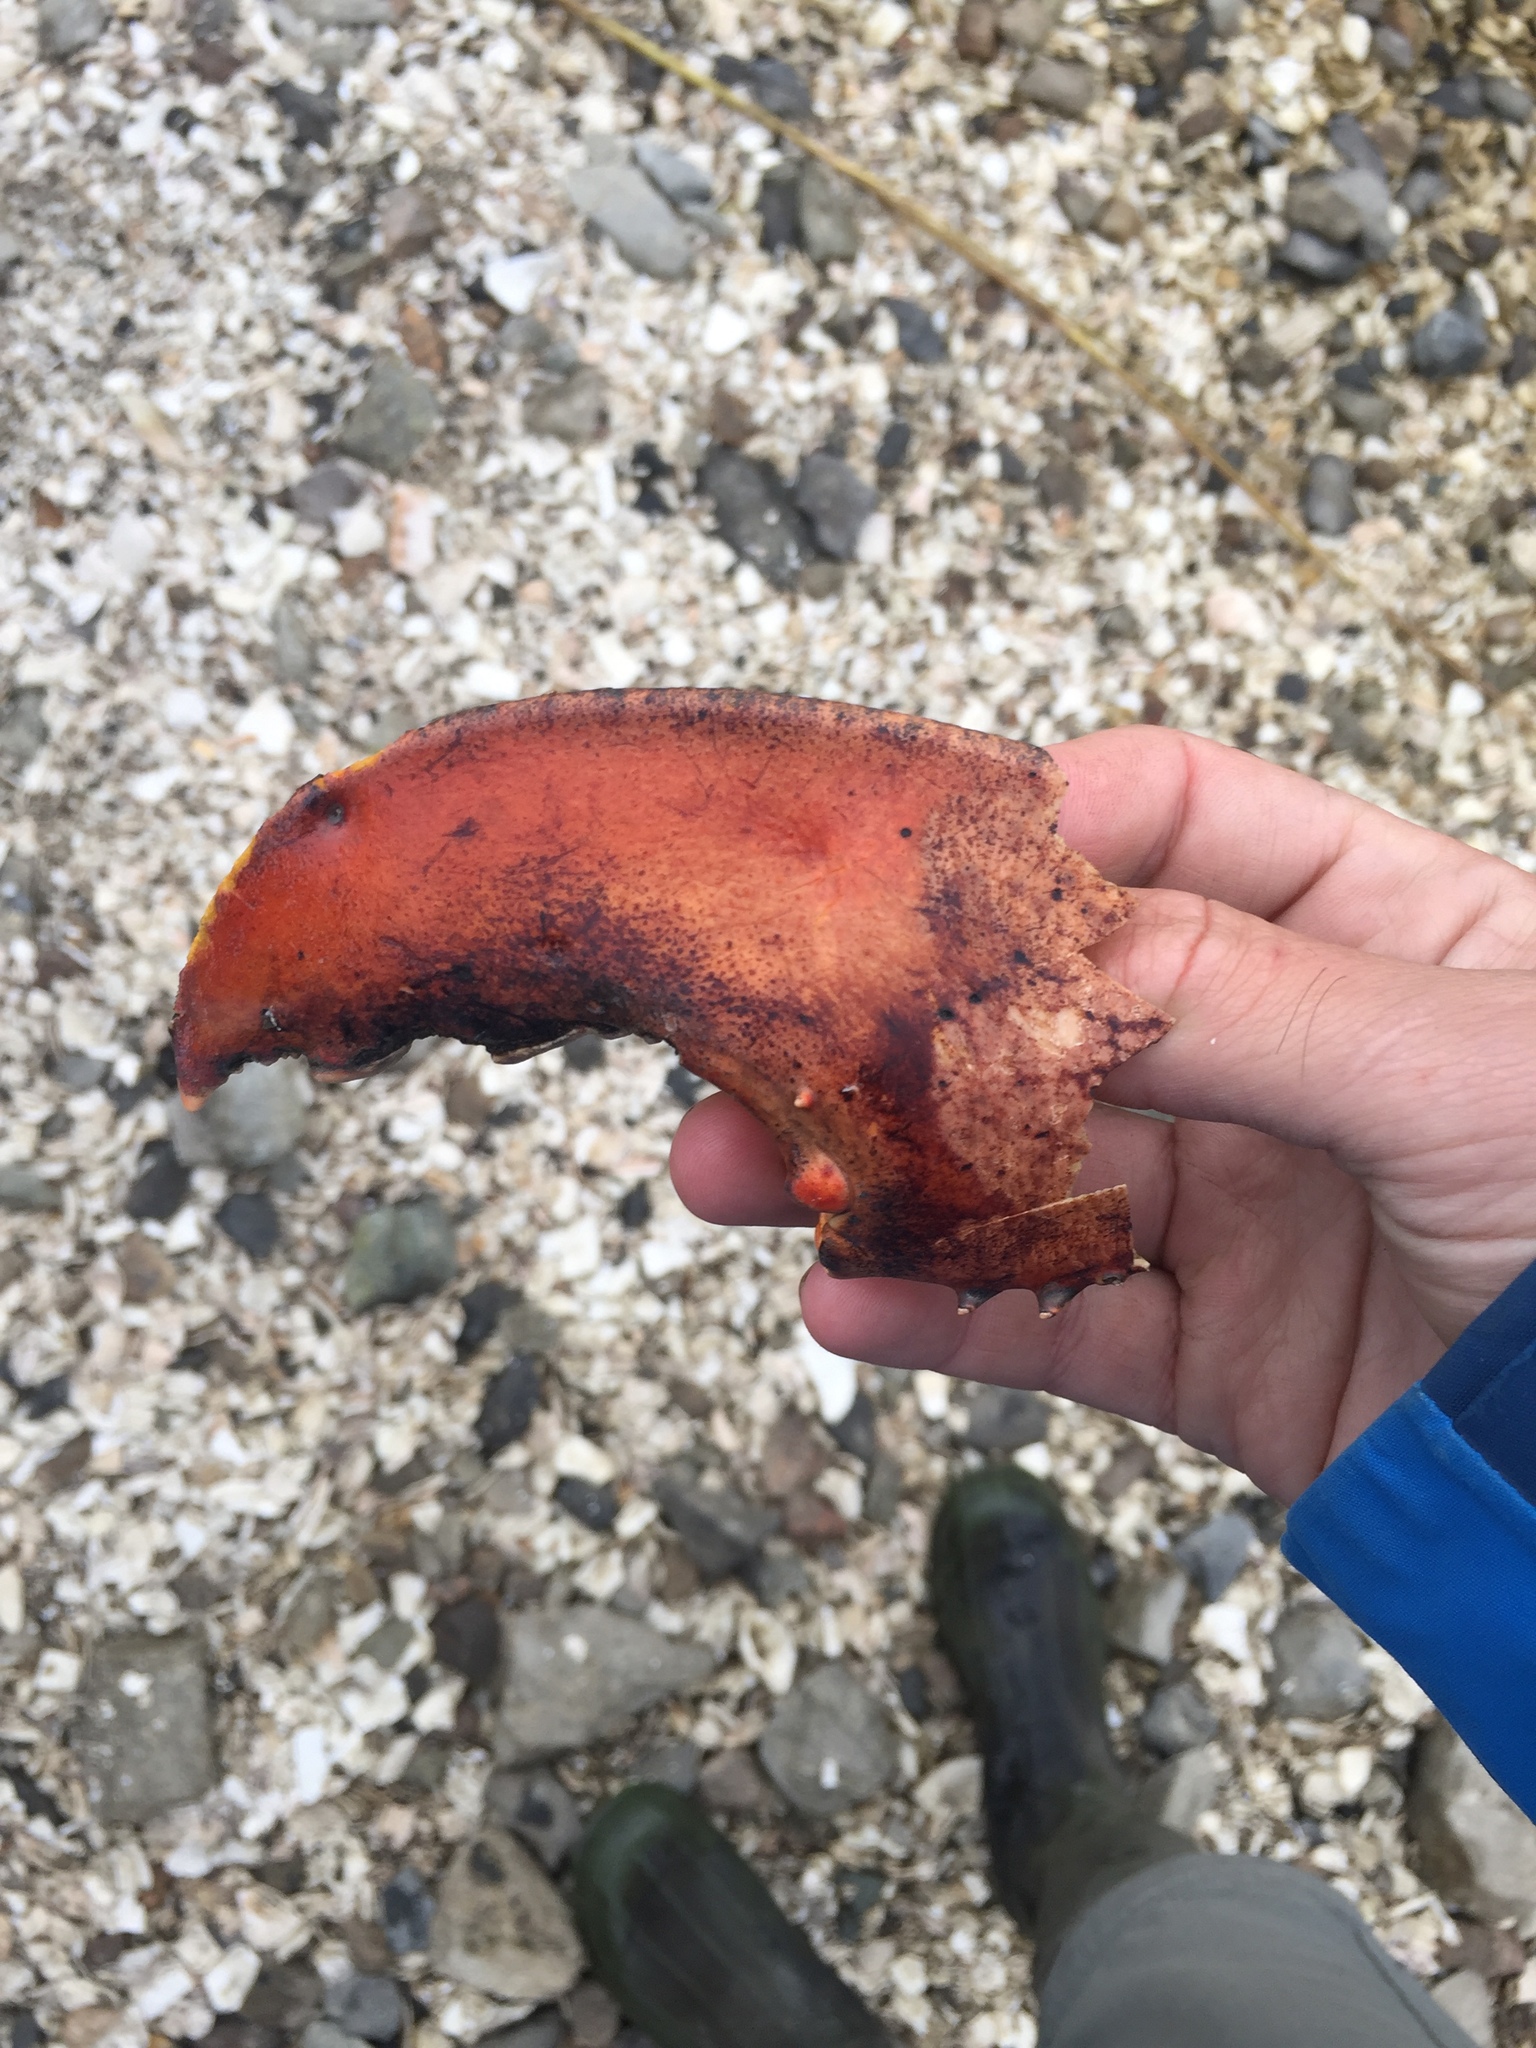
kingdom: Animalia
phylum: Arthropoda
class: Malacostraca
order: Decapoda
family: Nephropidae
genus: Homarus
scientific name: Homarus americanus
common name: American lobster
